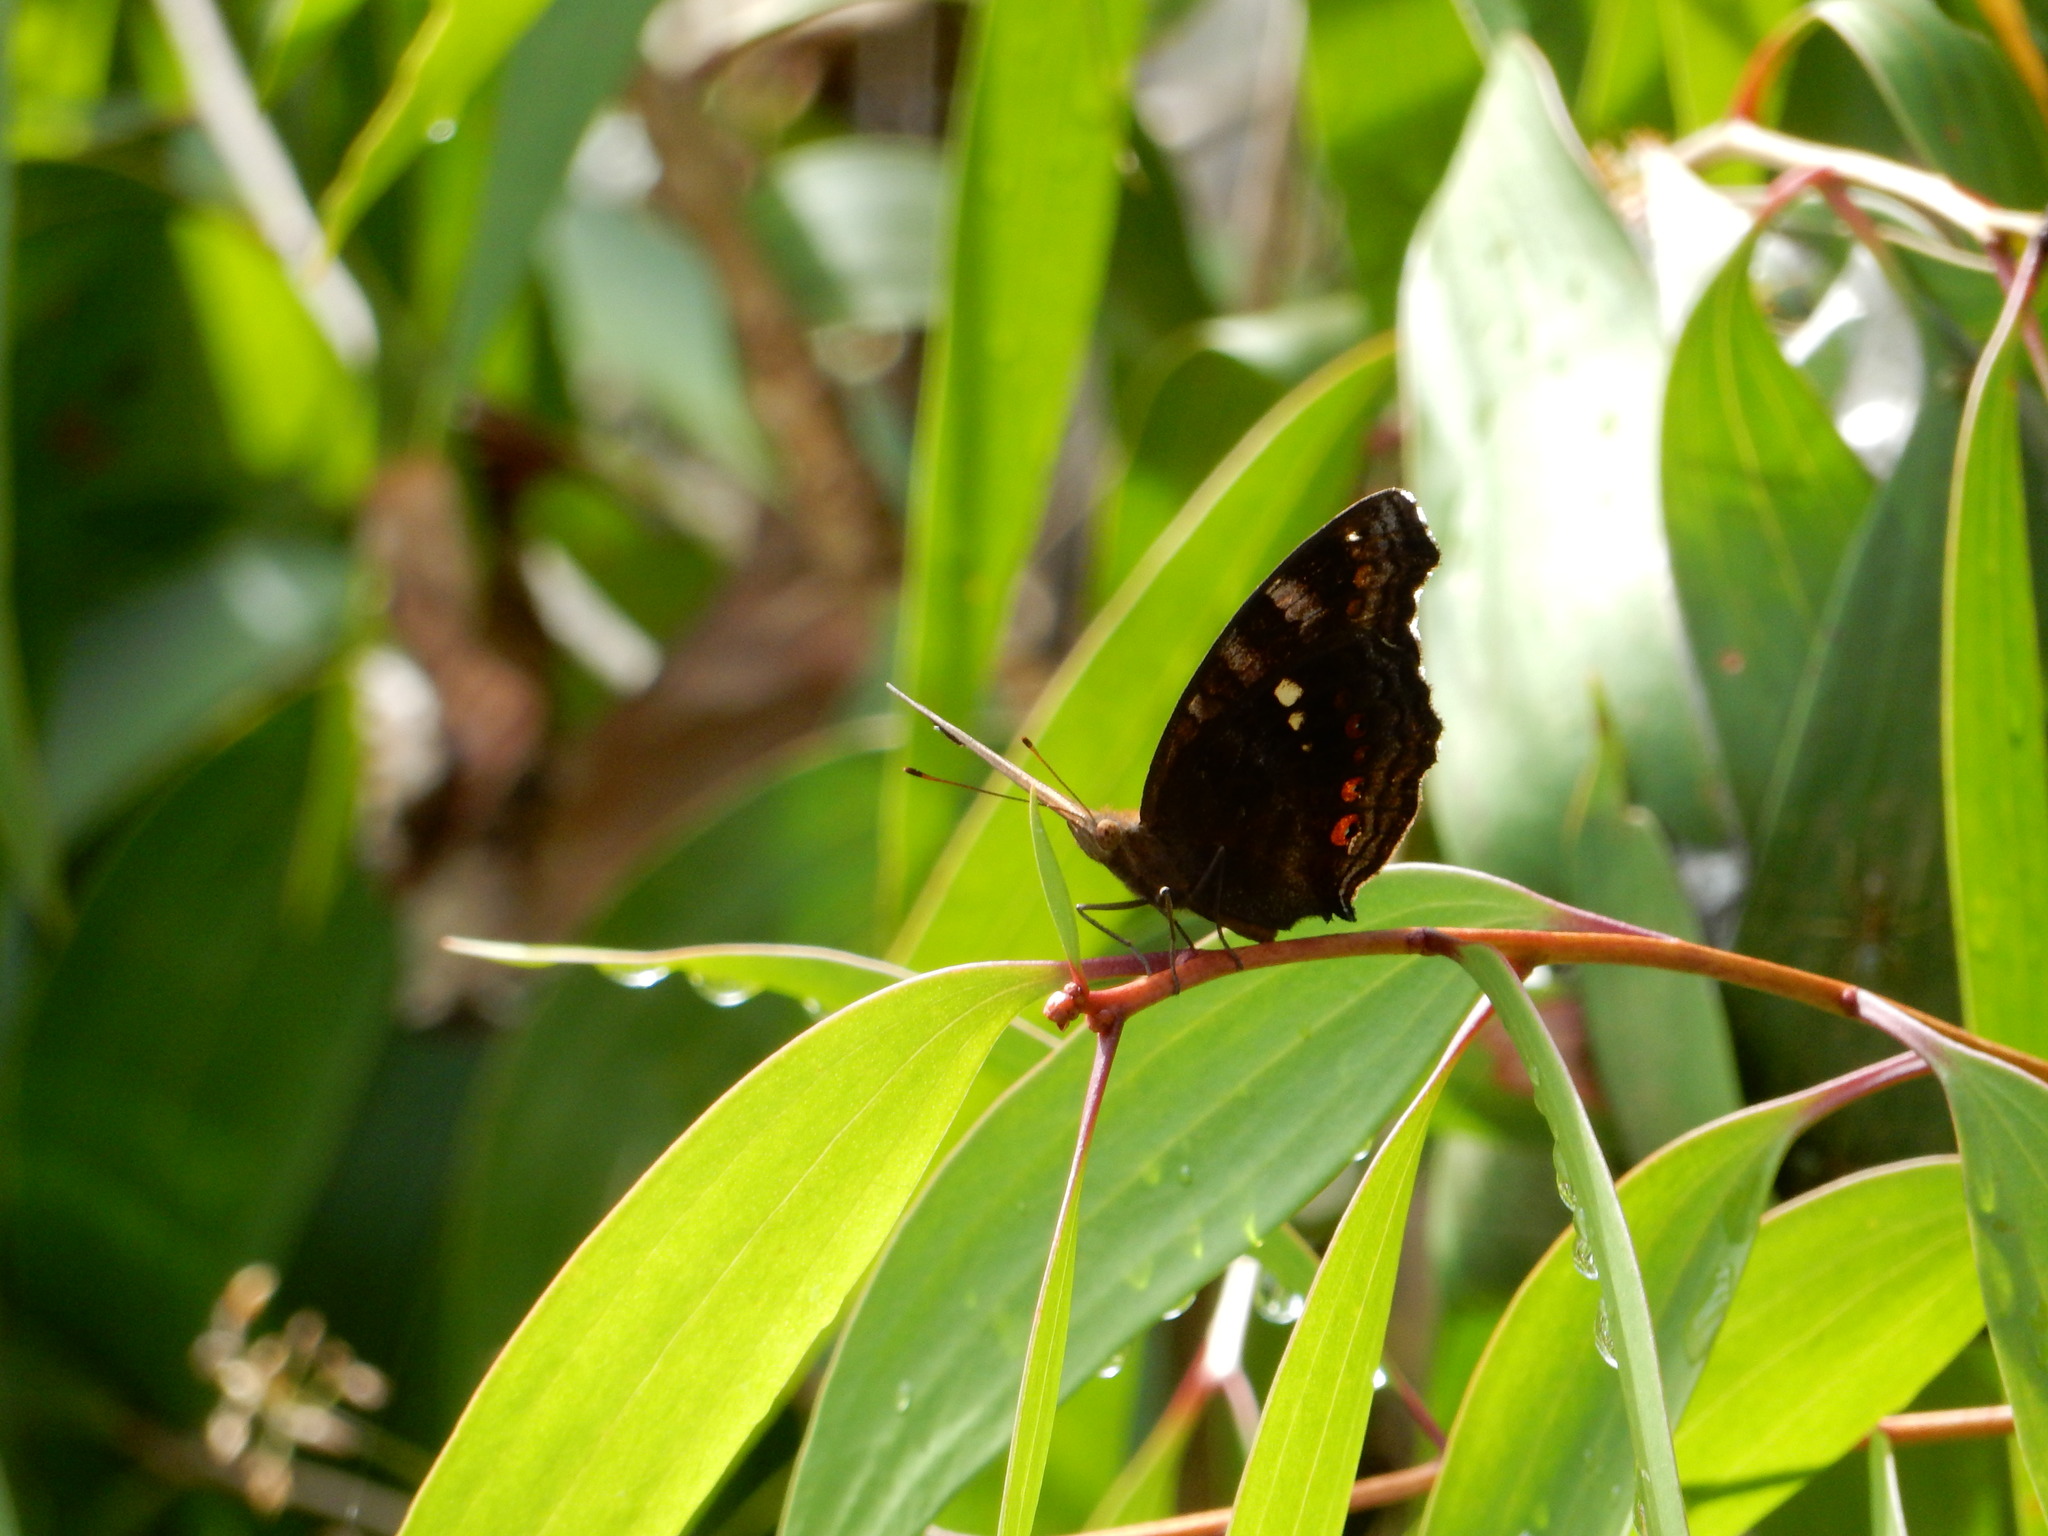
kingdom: Animalia
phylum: Arthropoda
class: Insecta
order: Lepidoptera
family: Nymphalidae
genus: Junonia
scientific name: Junonia hedonia
